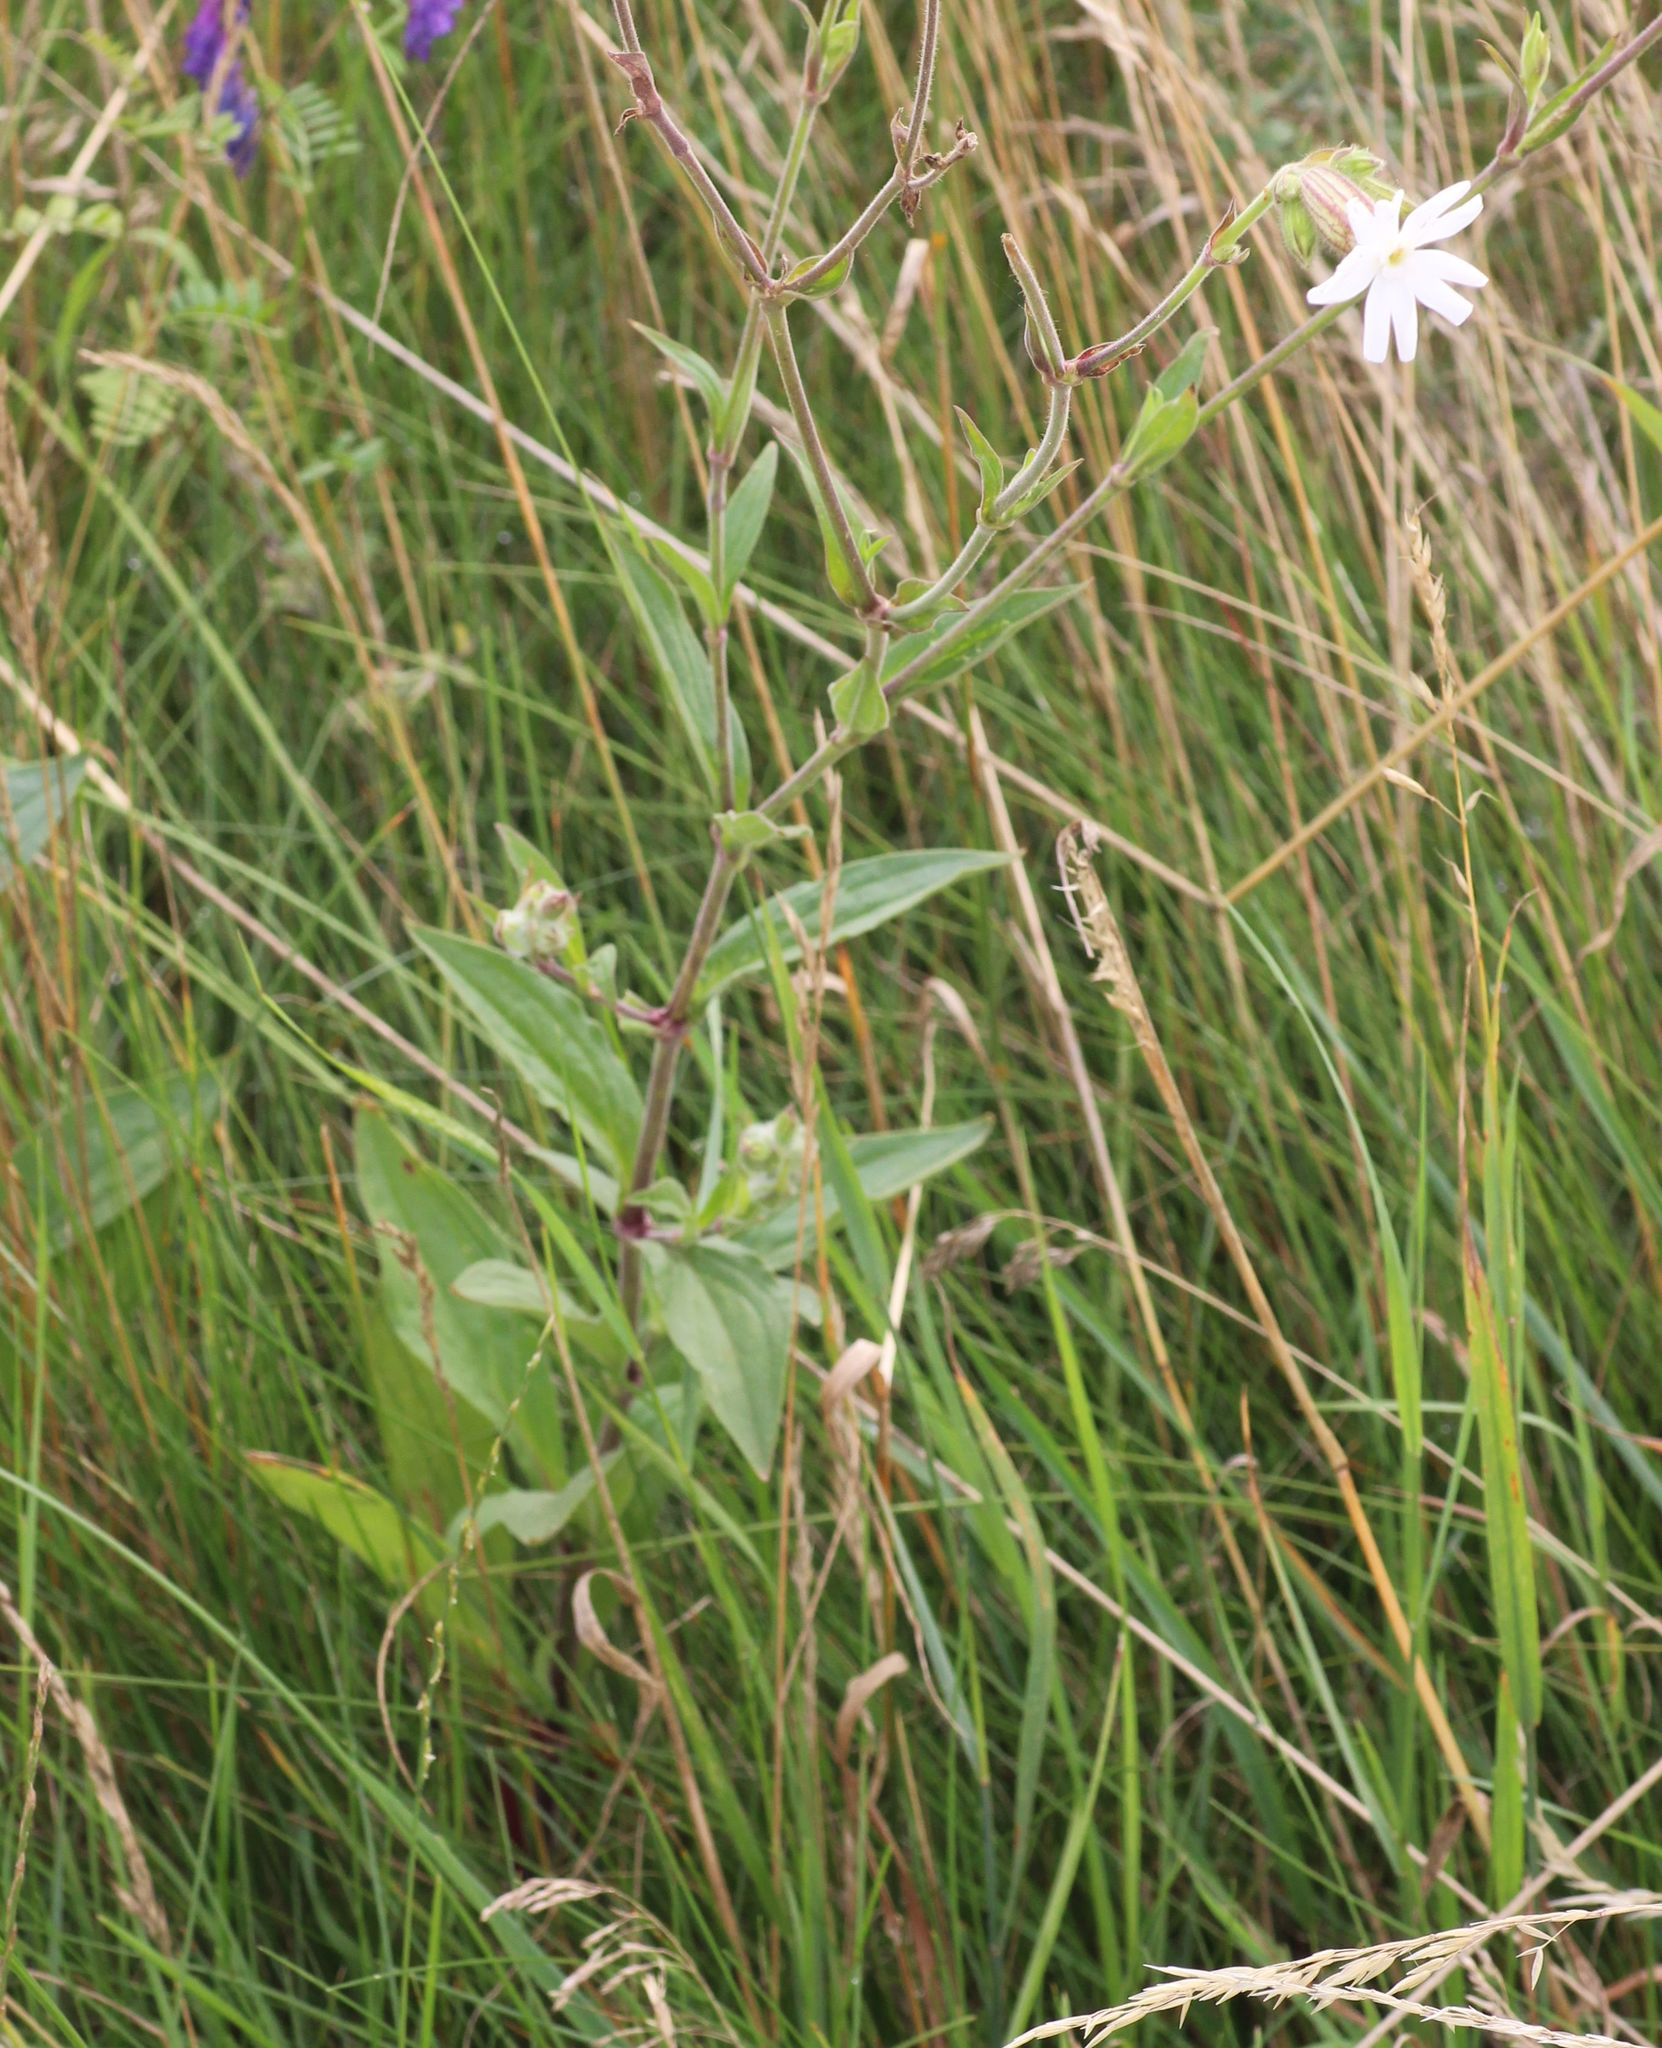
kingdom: Plantae
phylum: Tracheophyta
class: Magnoliopsida
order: Caryophyllales
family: Caryophyllaceae
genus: Silene
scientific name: Silene latifolia
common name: White campion
